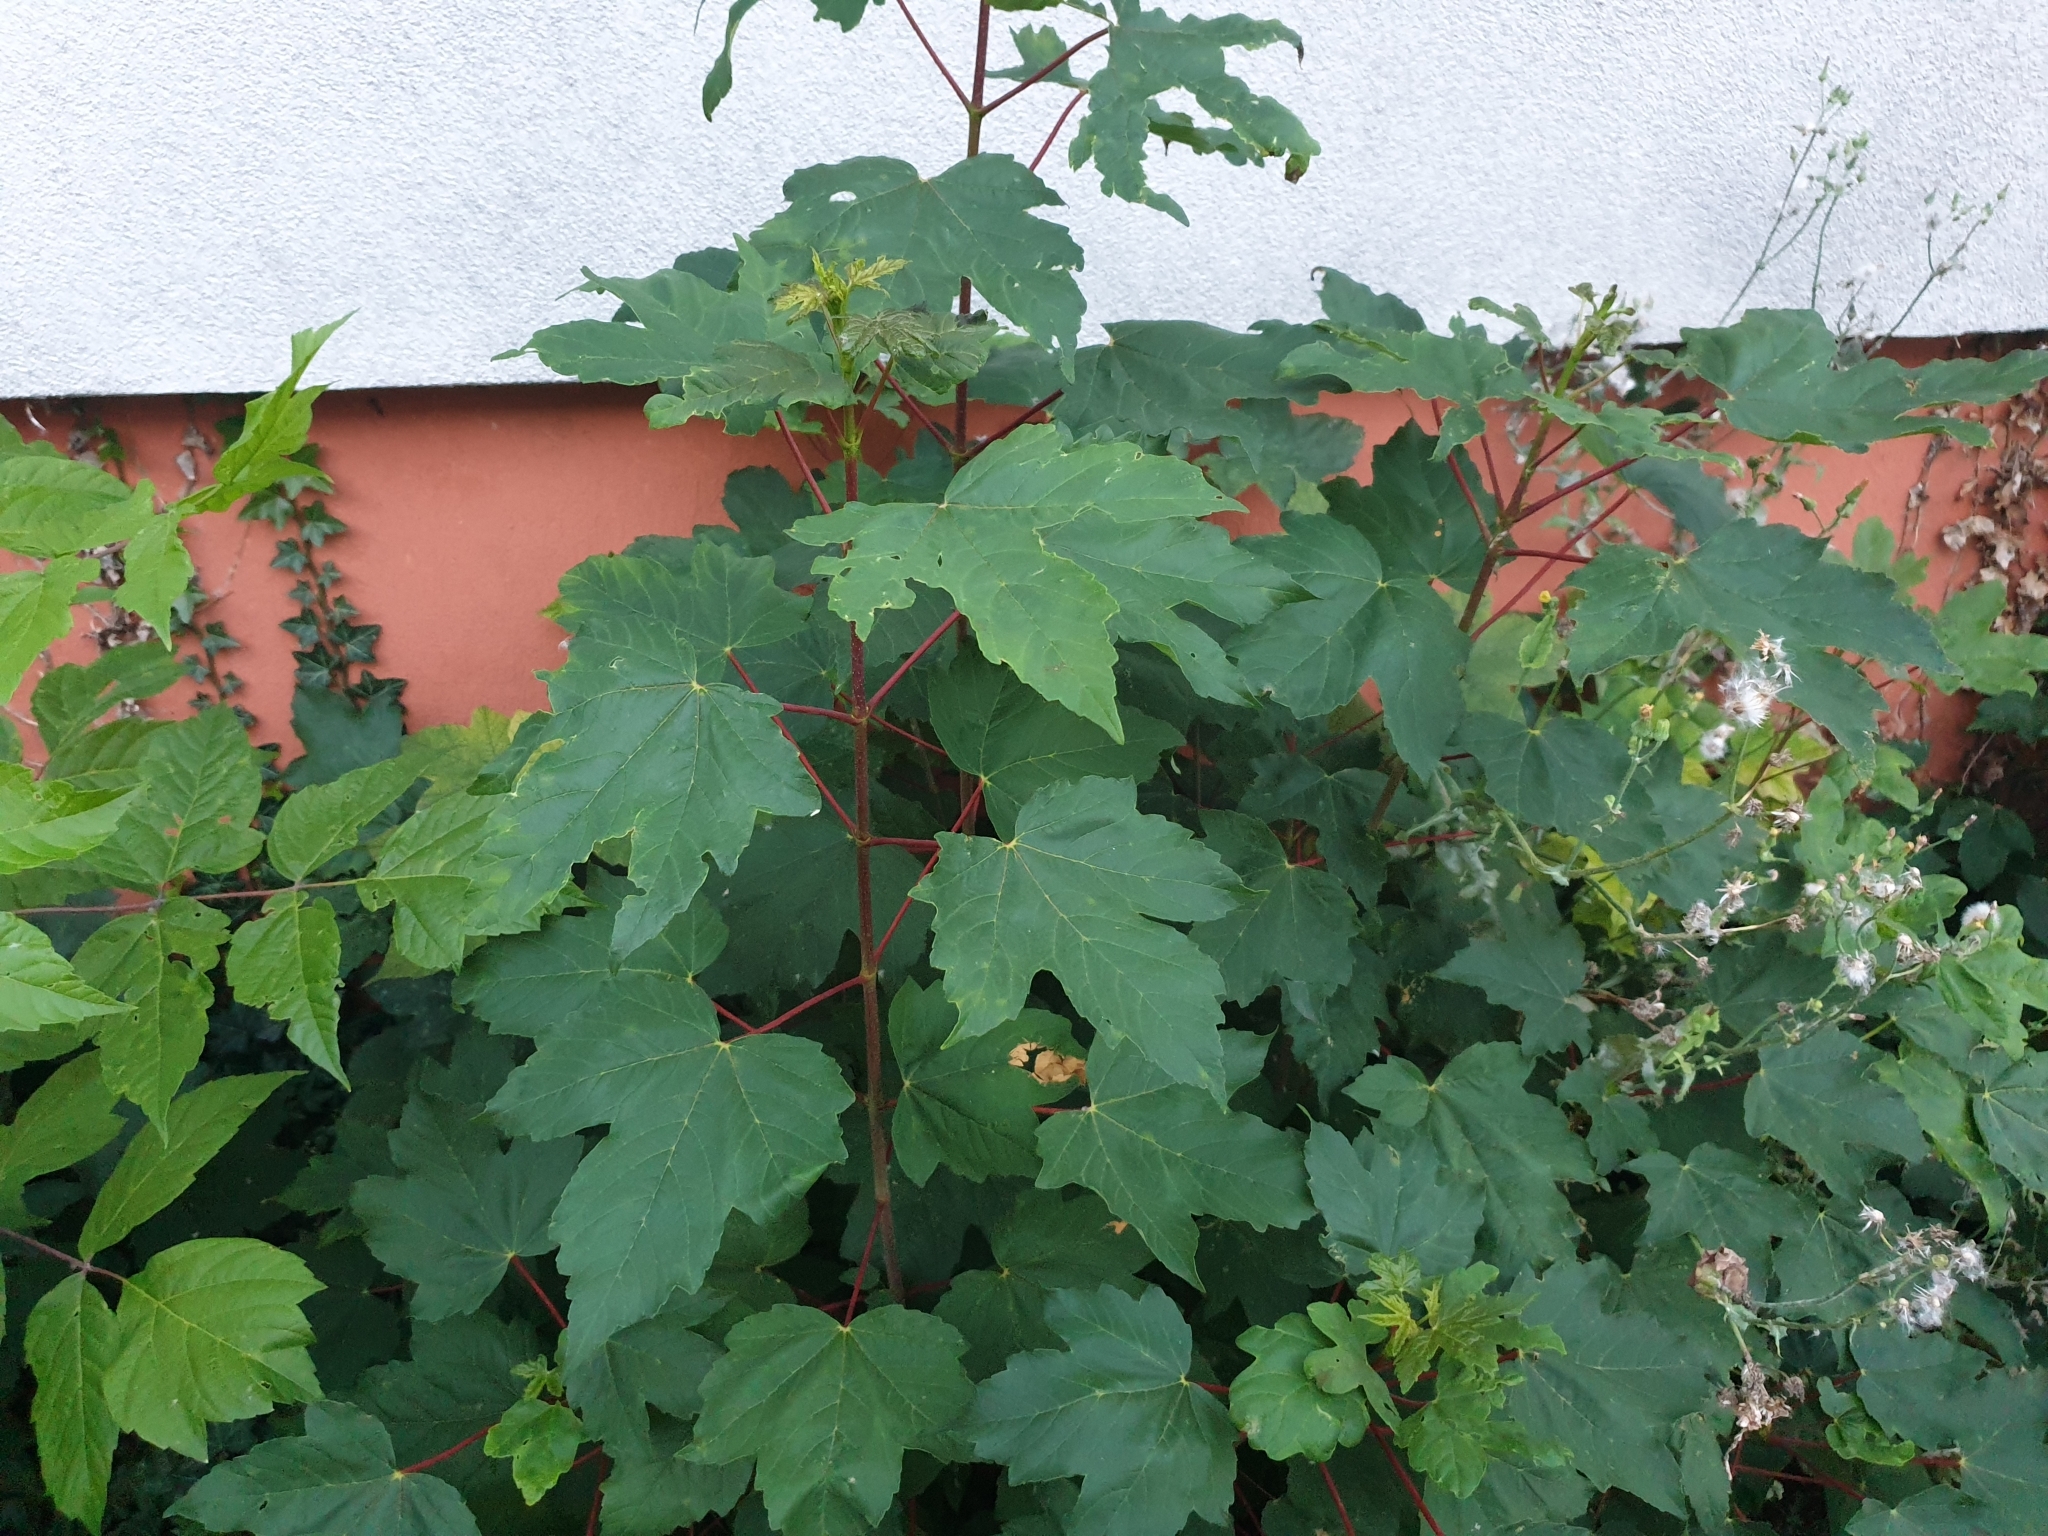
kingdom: Plantae
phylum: Tracheophyta
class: Magnoliopsida
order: Sapindales
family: Sapindaceae
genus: Acer
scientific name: Acer pseudoplatanus
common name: Sycamore
